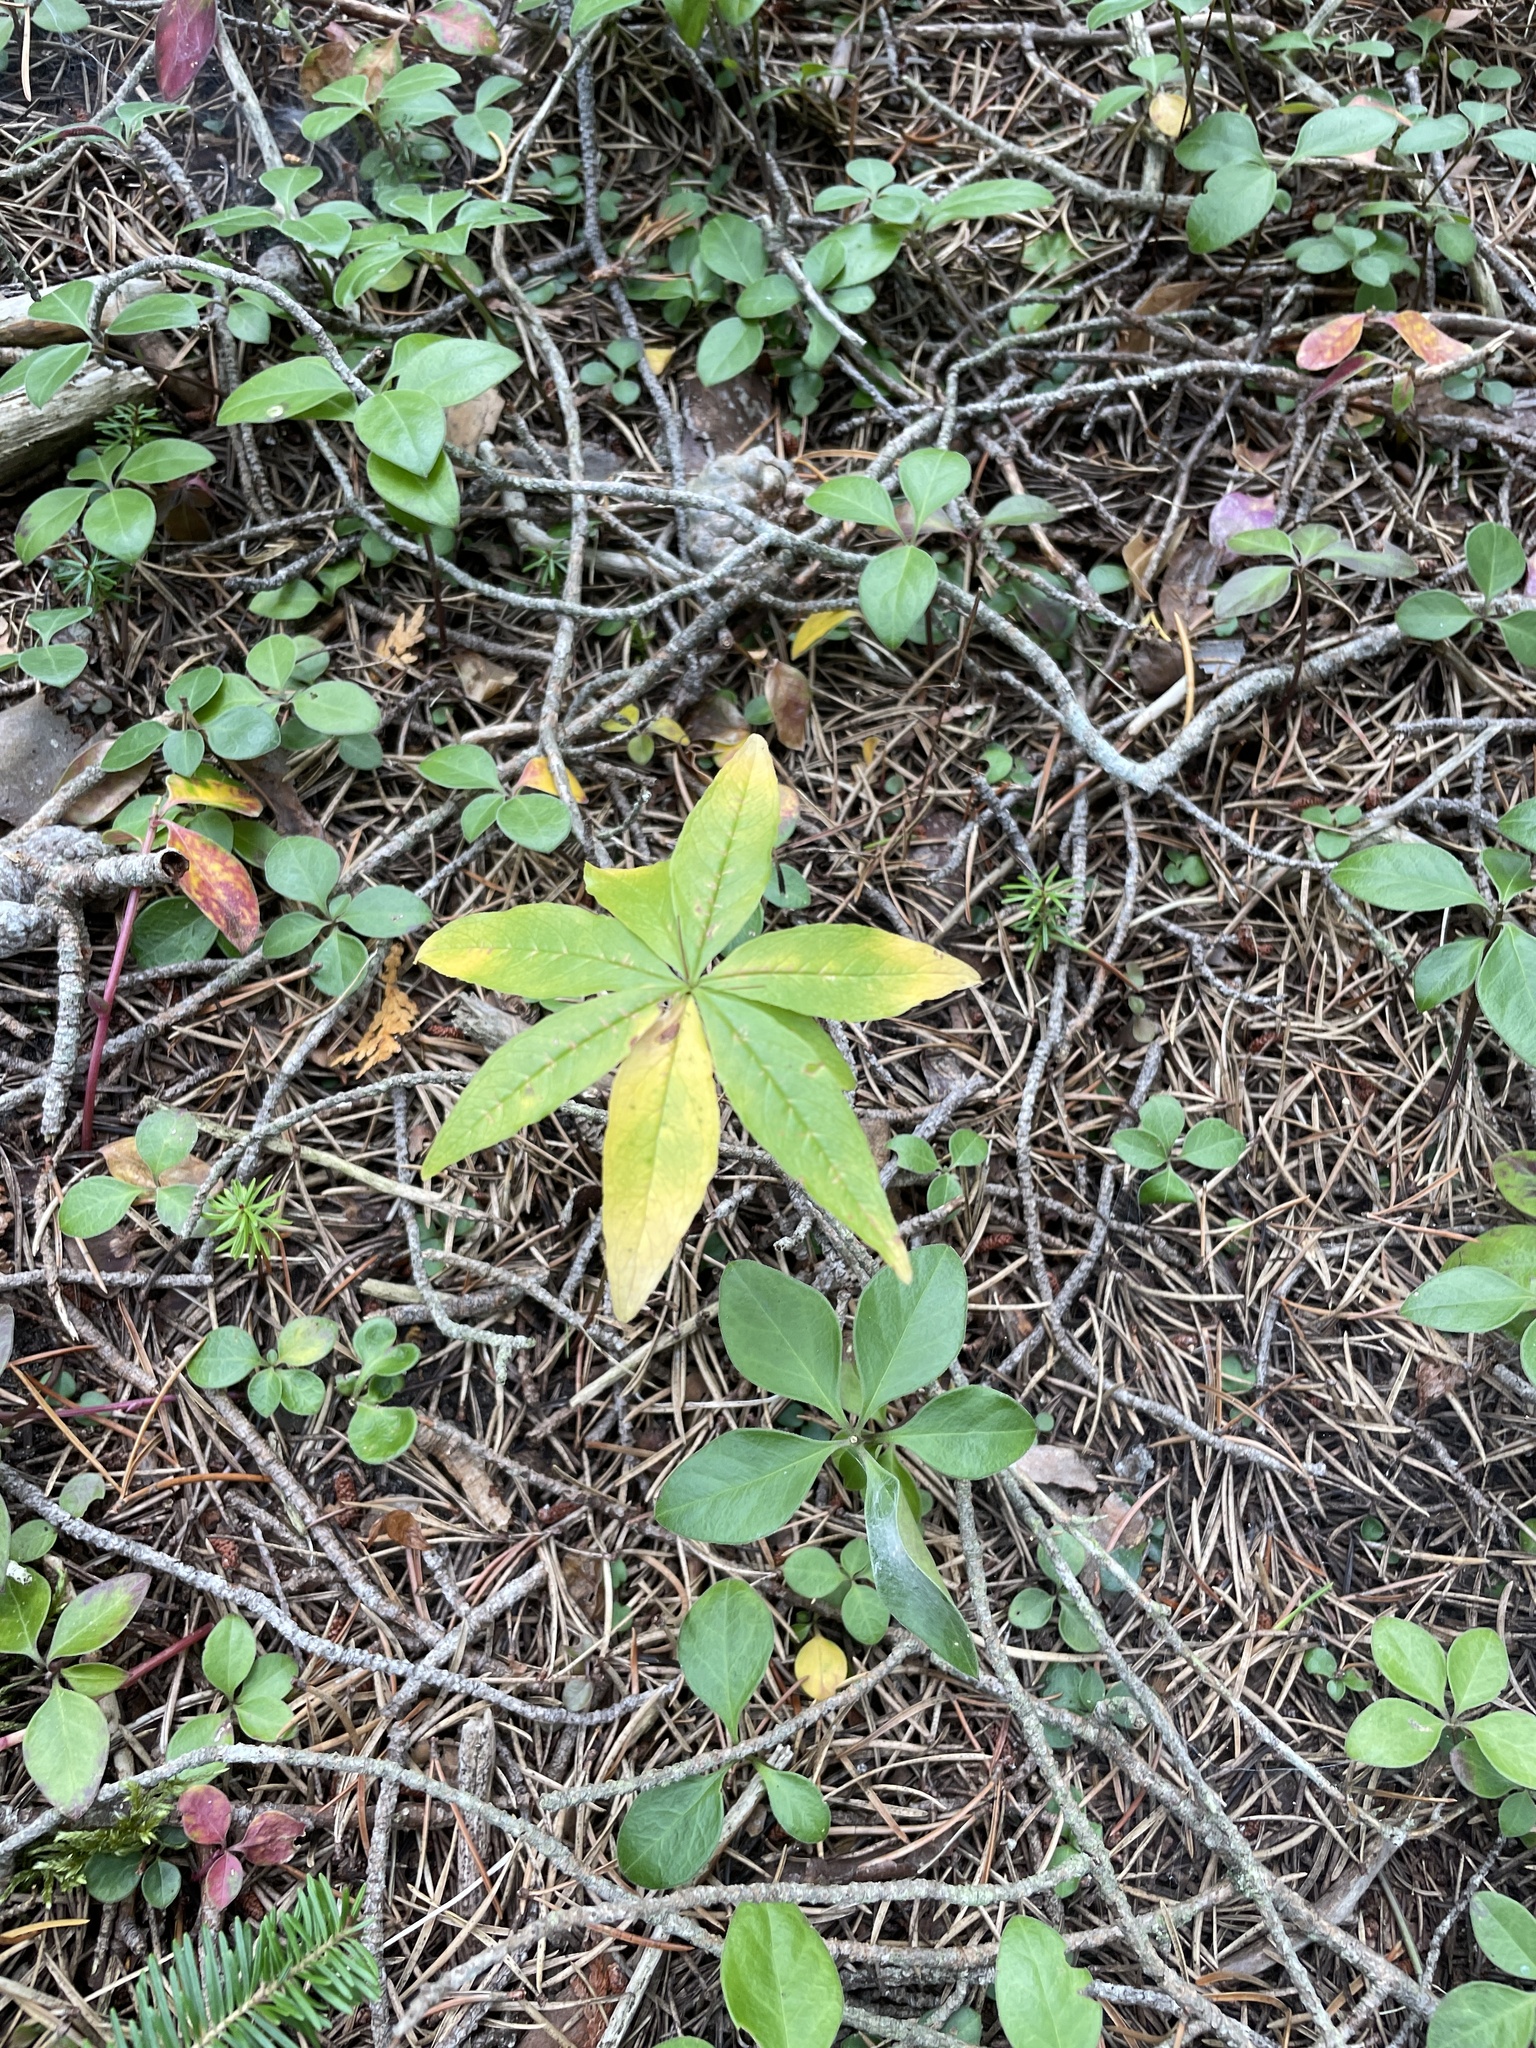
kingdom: Plantae
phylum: Tracheophyta
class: Magnoliopsida
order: Ericales
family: Primulaceae
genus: Lysimachia
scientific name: Lysimachia borealis
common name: American starflower
